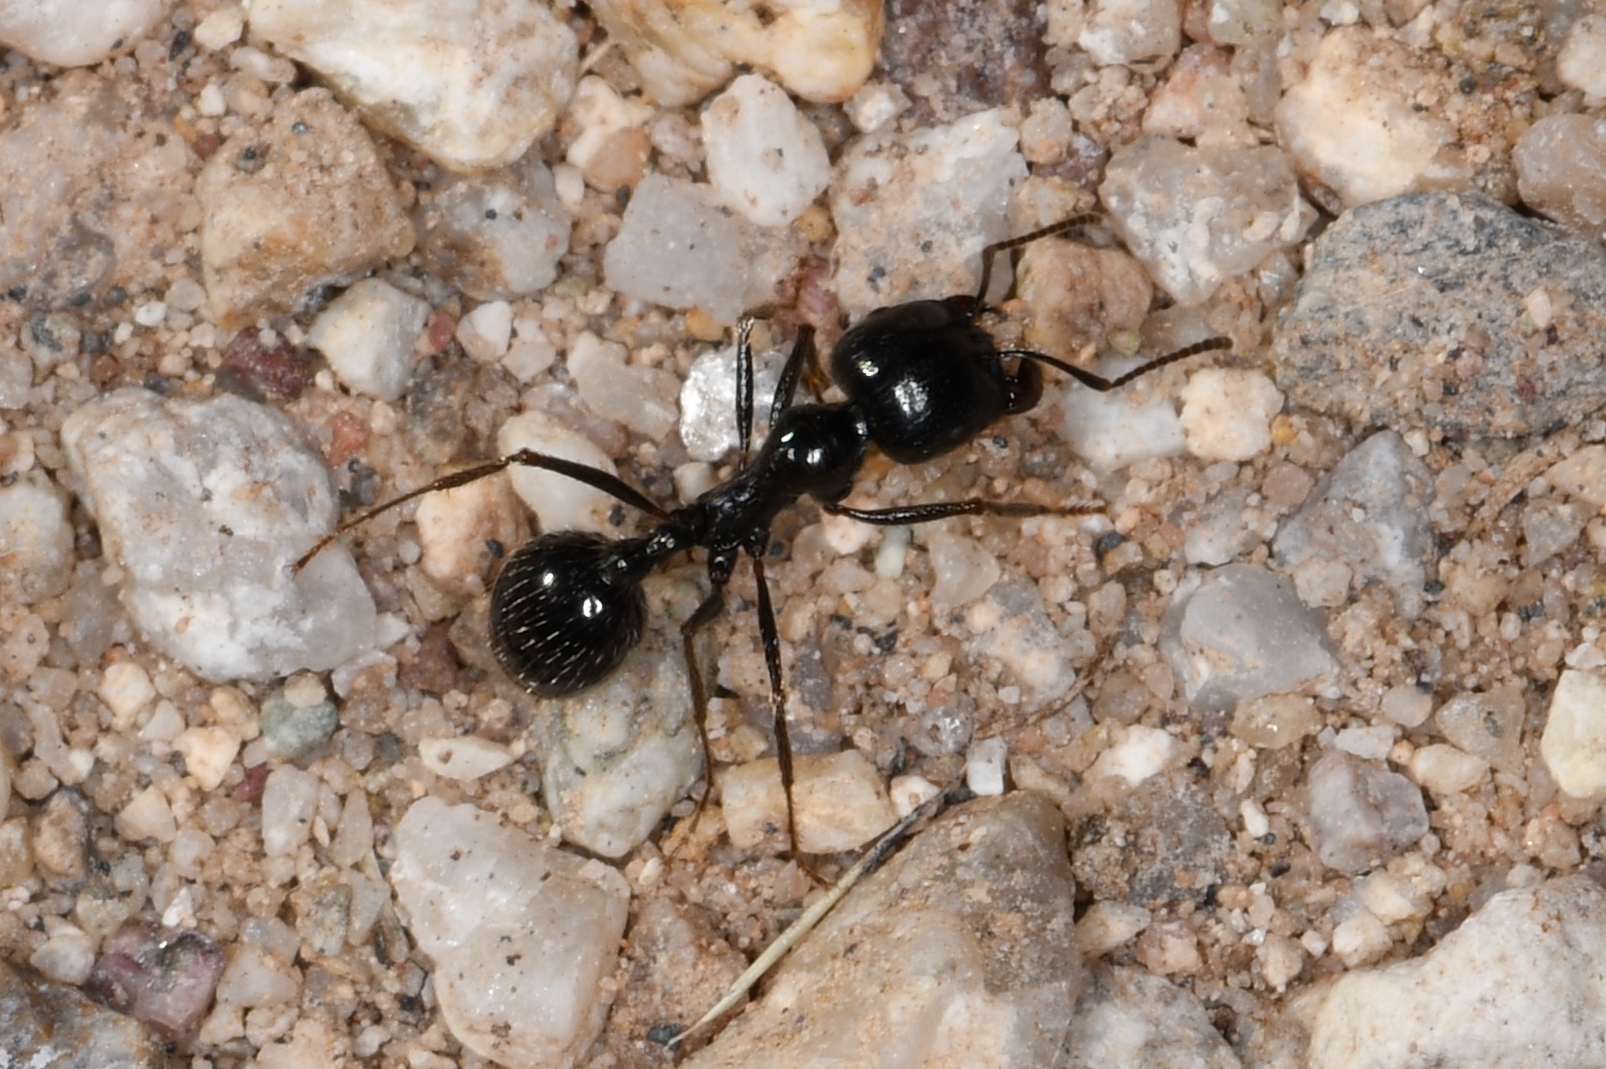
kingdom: Animalia
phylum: Arthropoda
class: Insecta
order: Hymenoptera
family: Formicidae
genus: Messor
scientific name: Messor pergandei
